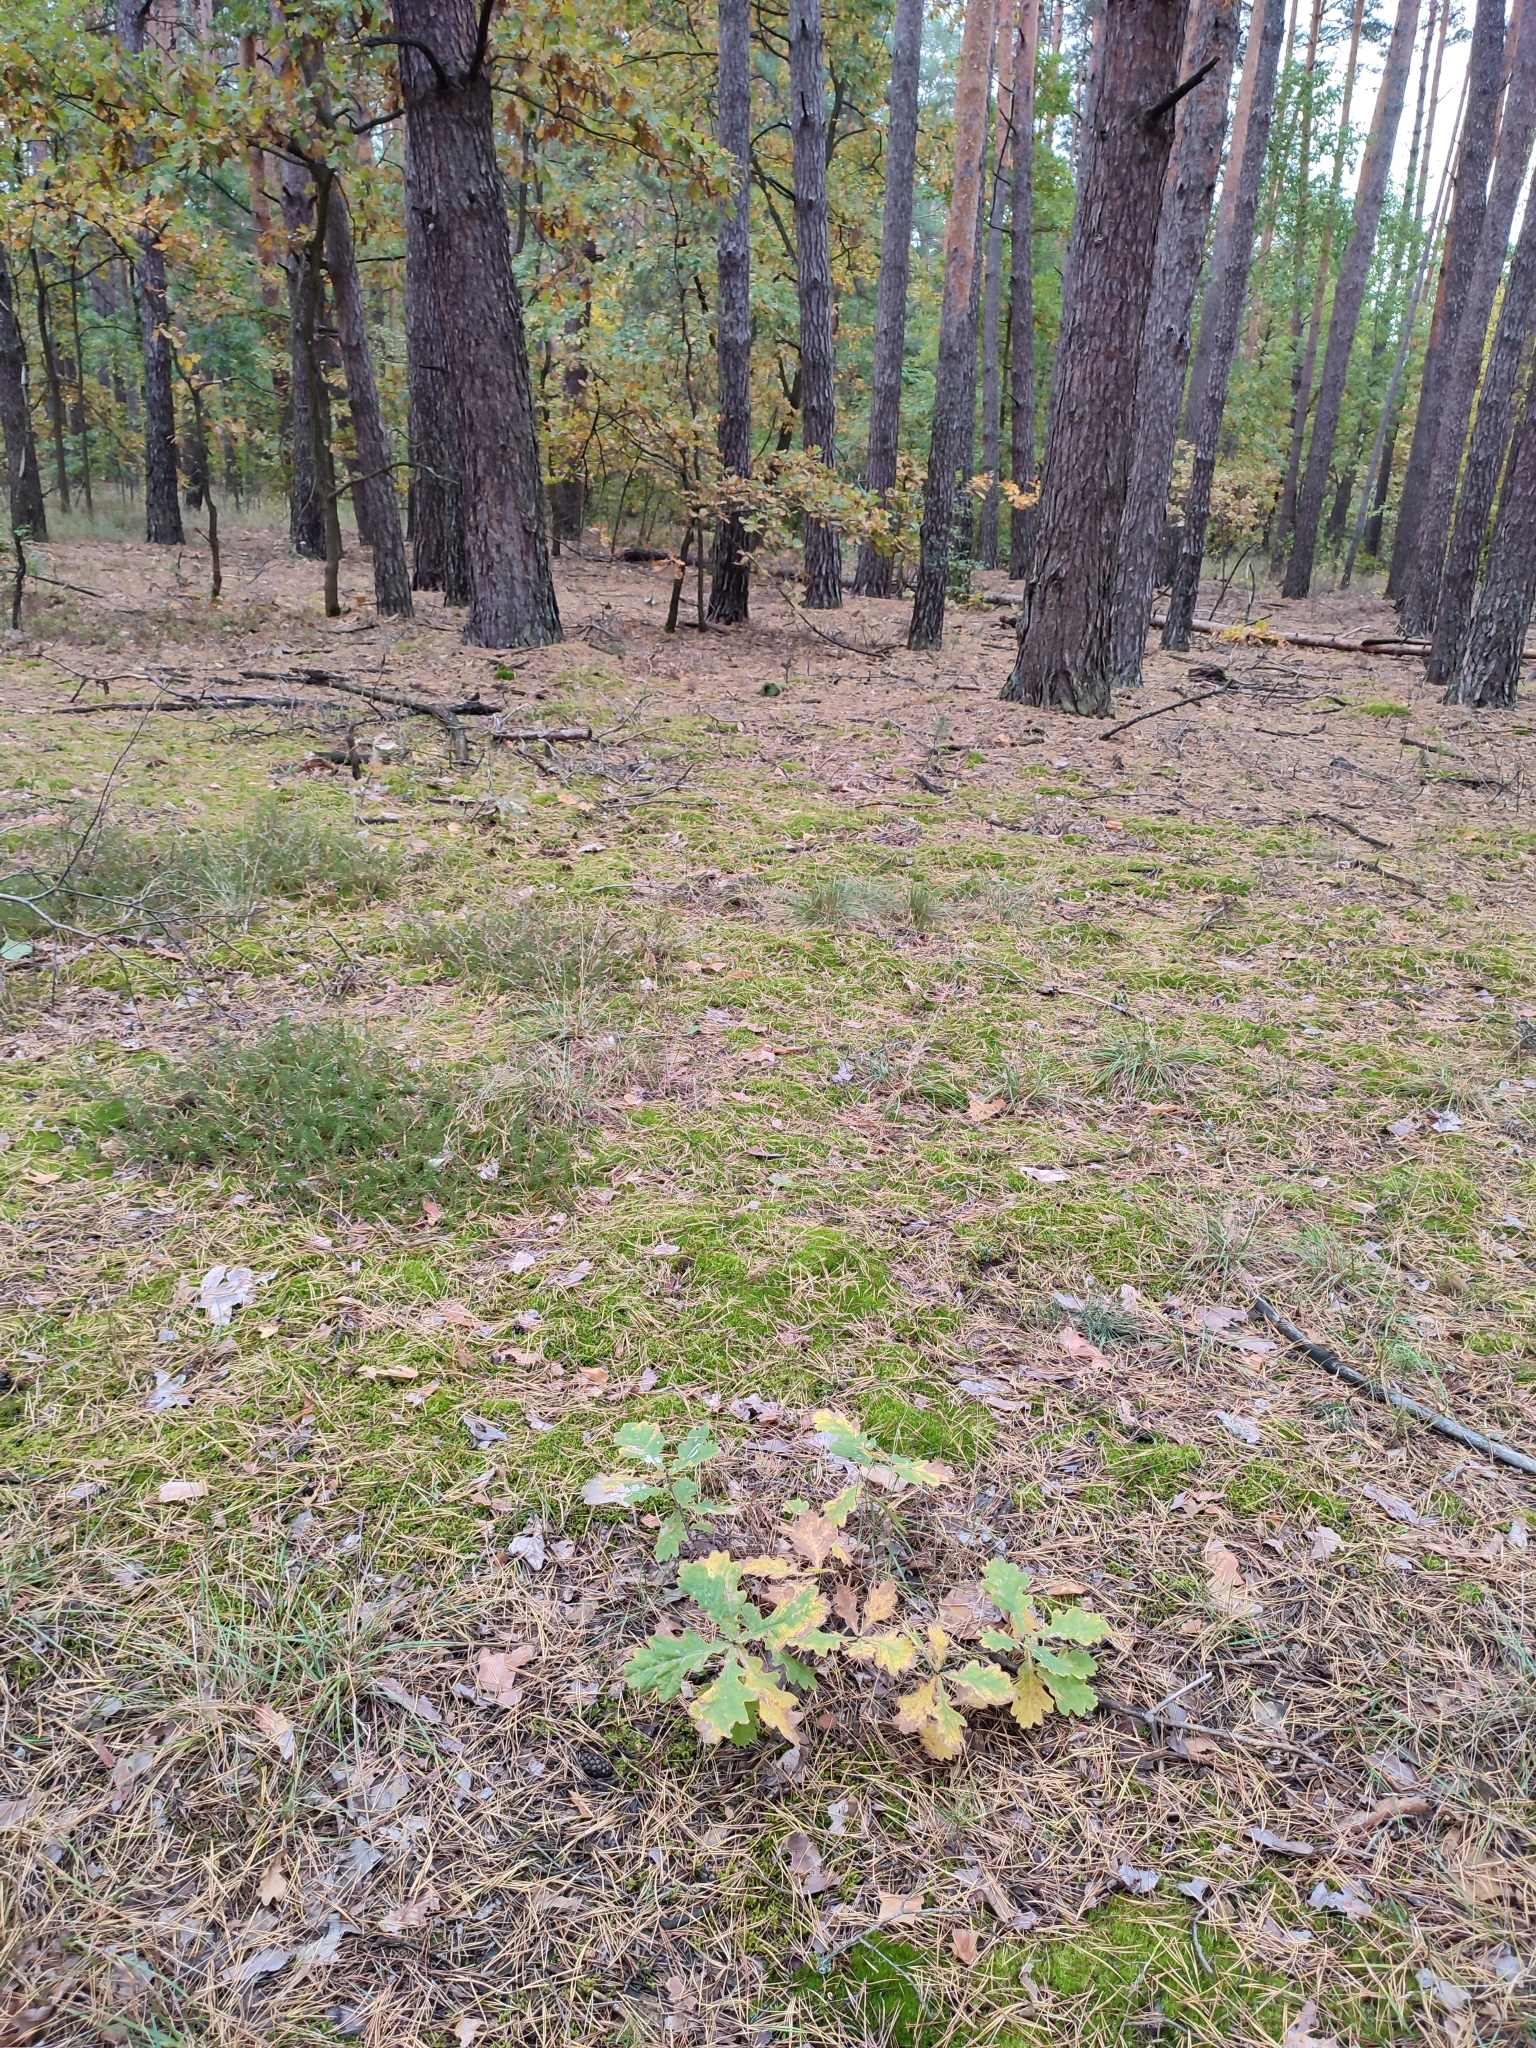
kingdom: Plantae
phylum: Tracheophyta
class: Magnoliopsida
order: Fagales
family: Fagaceae
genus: Quercus
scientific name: Quercus robur
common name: Pedunculate oak
